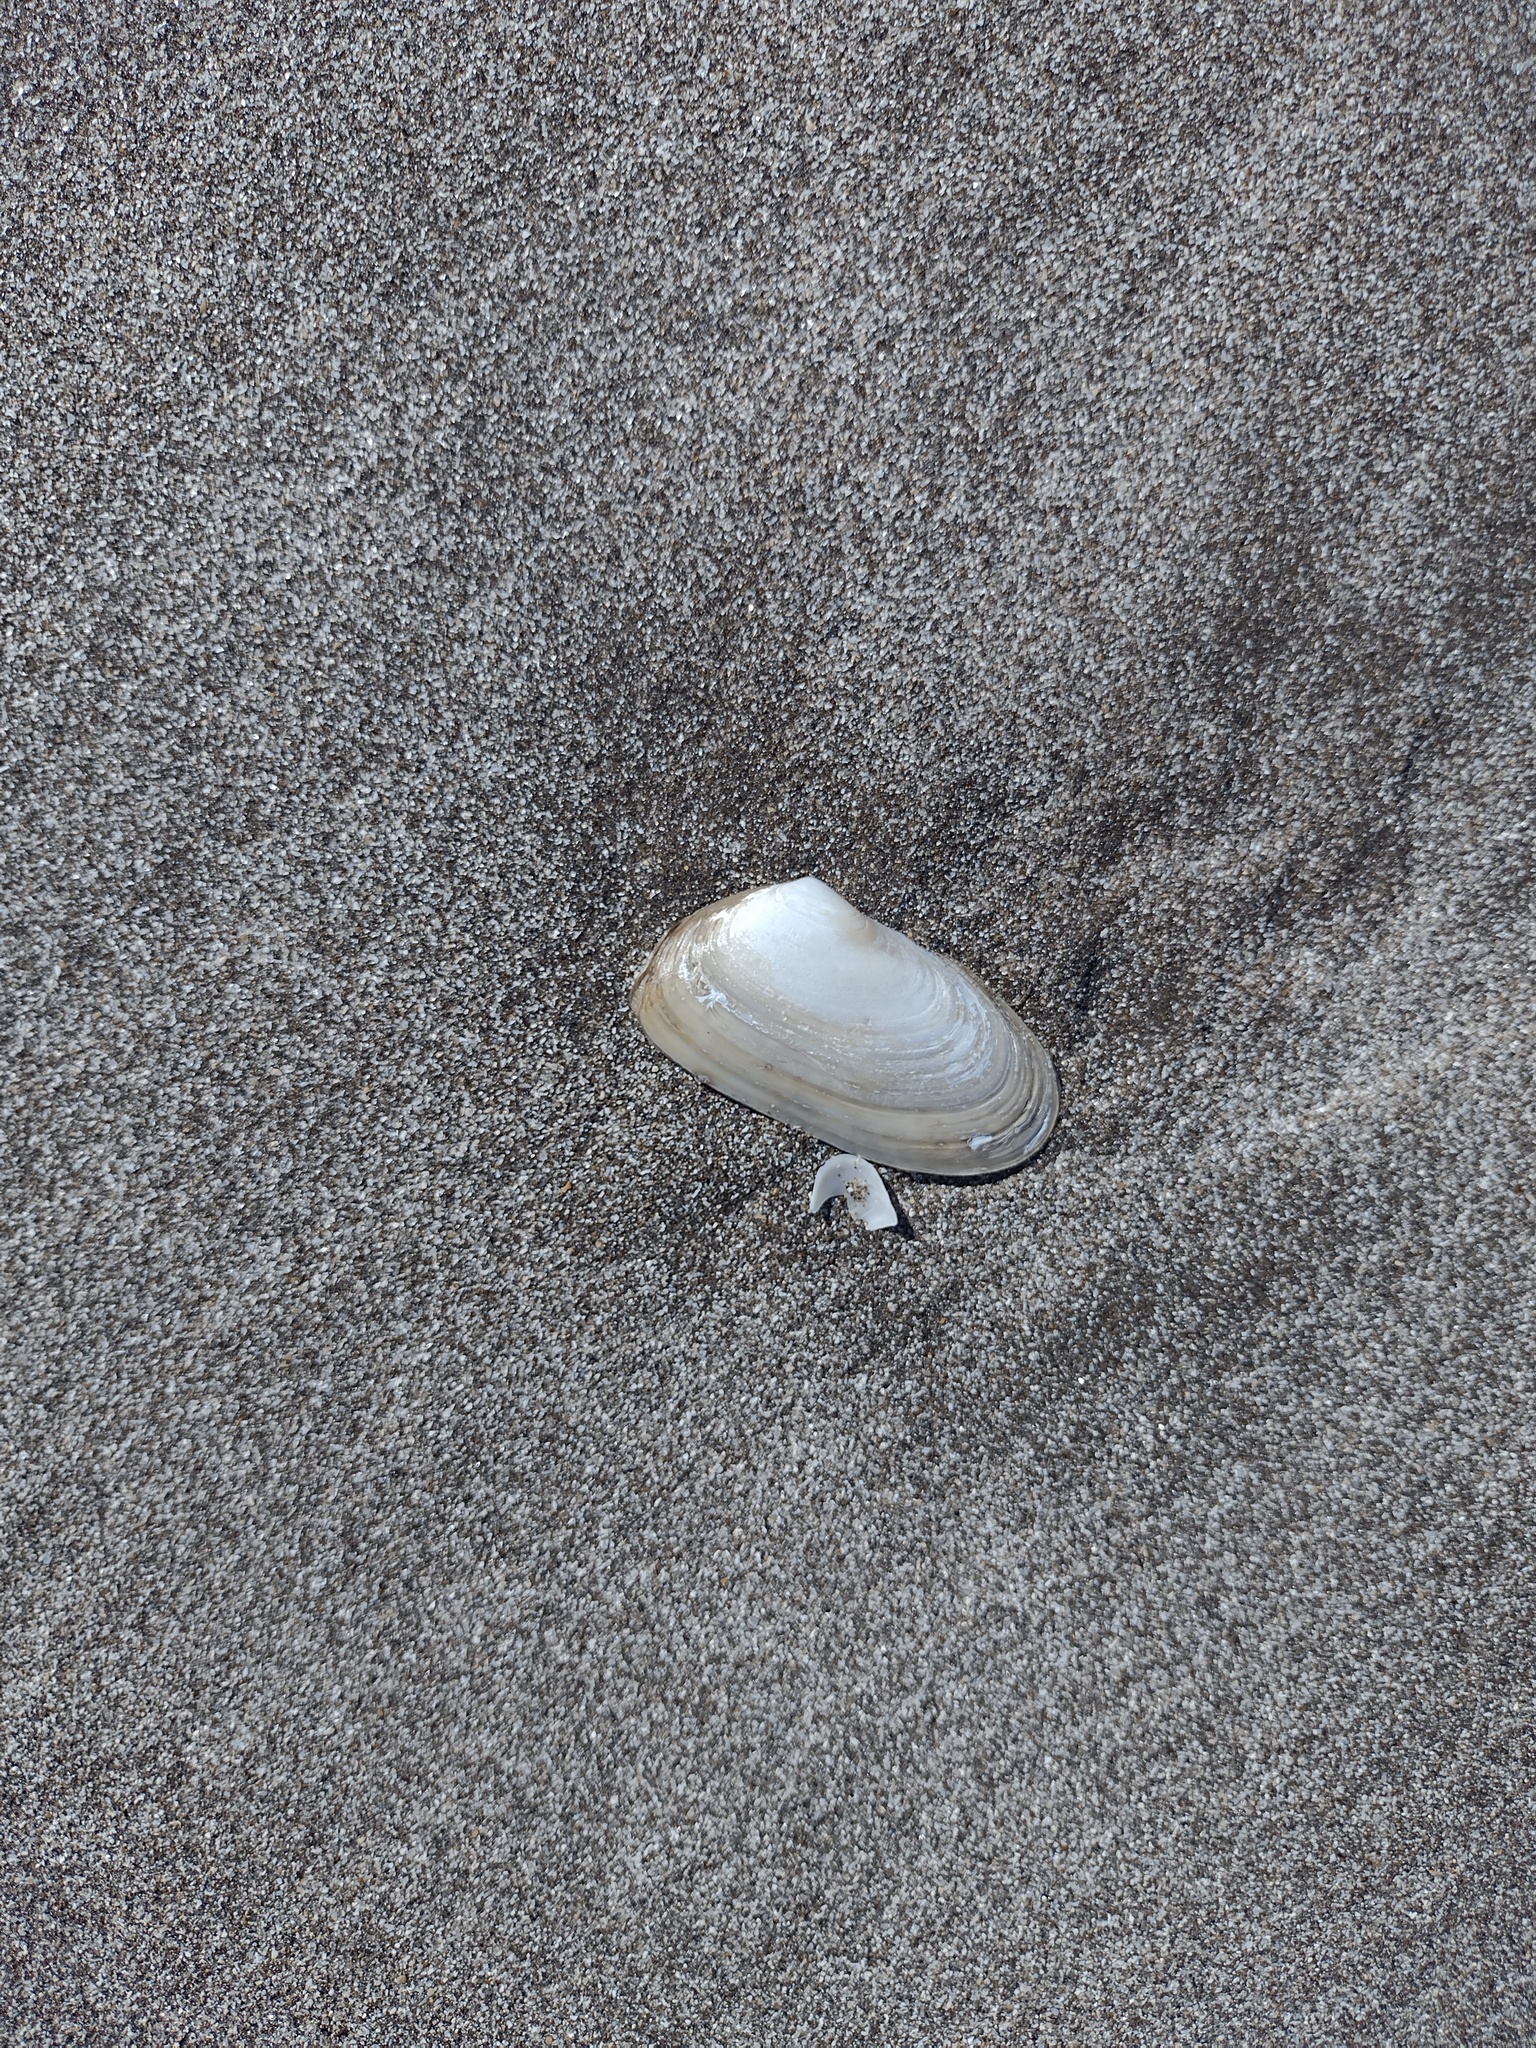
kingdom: Animalia
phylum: Mollusca
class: Bivalvia
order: Venerida
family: Mesodesmatidae
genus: Amarilladesma
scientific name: Amarilladesma mactroides
